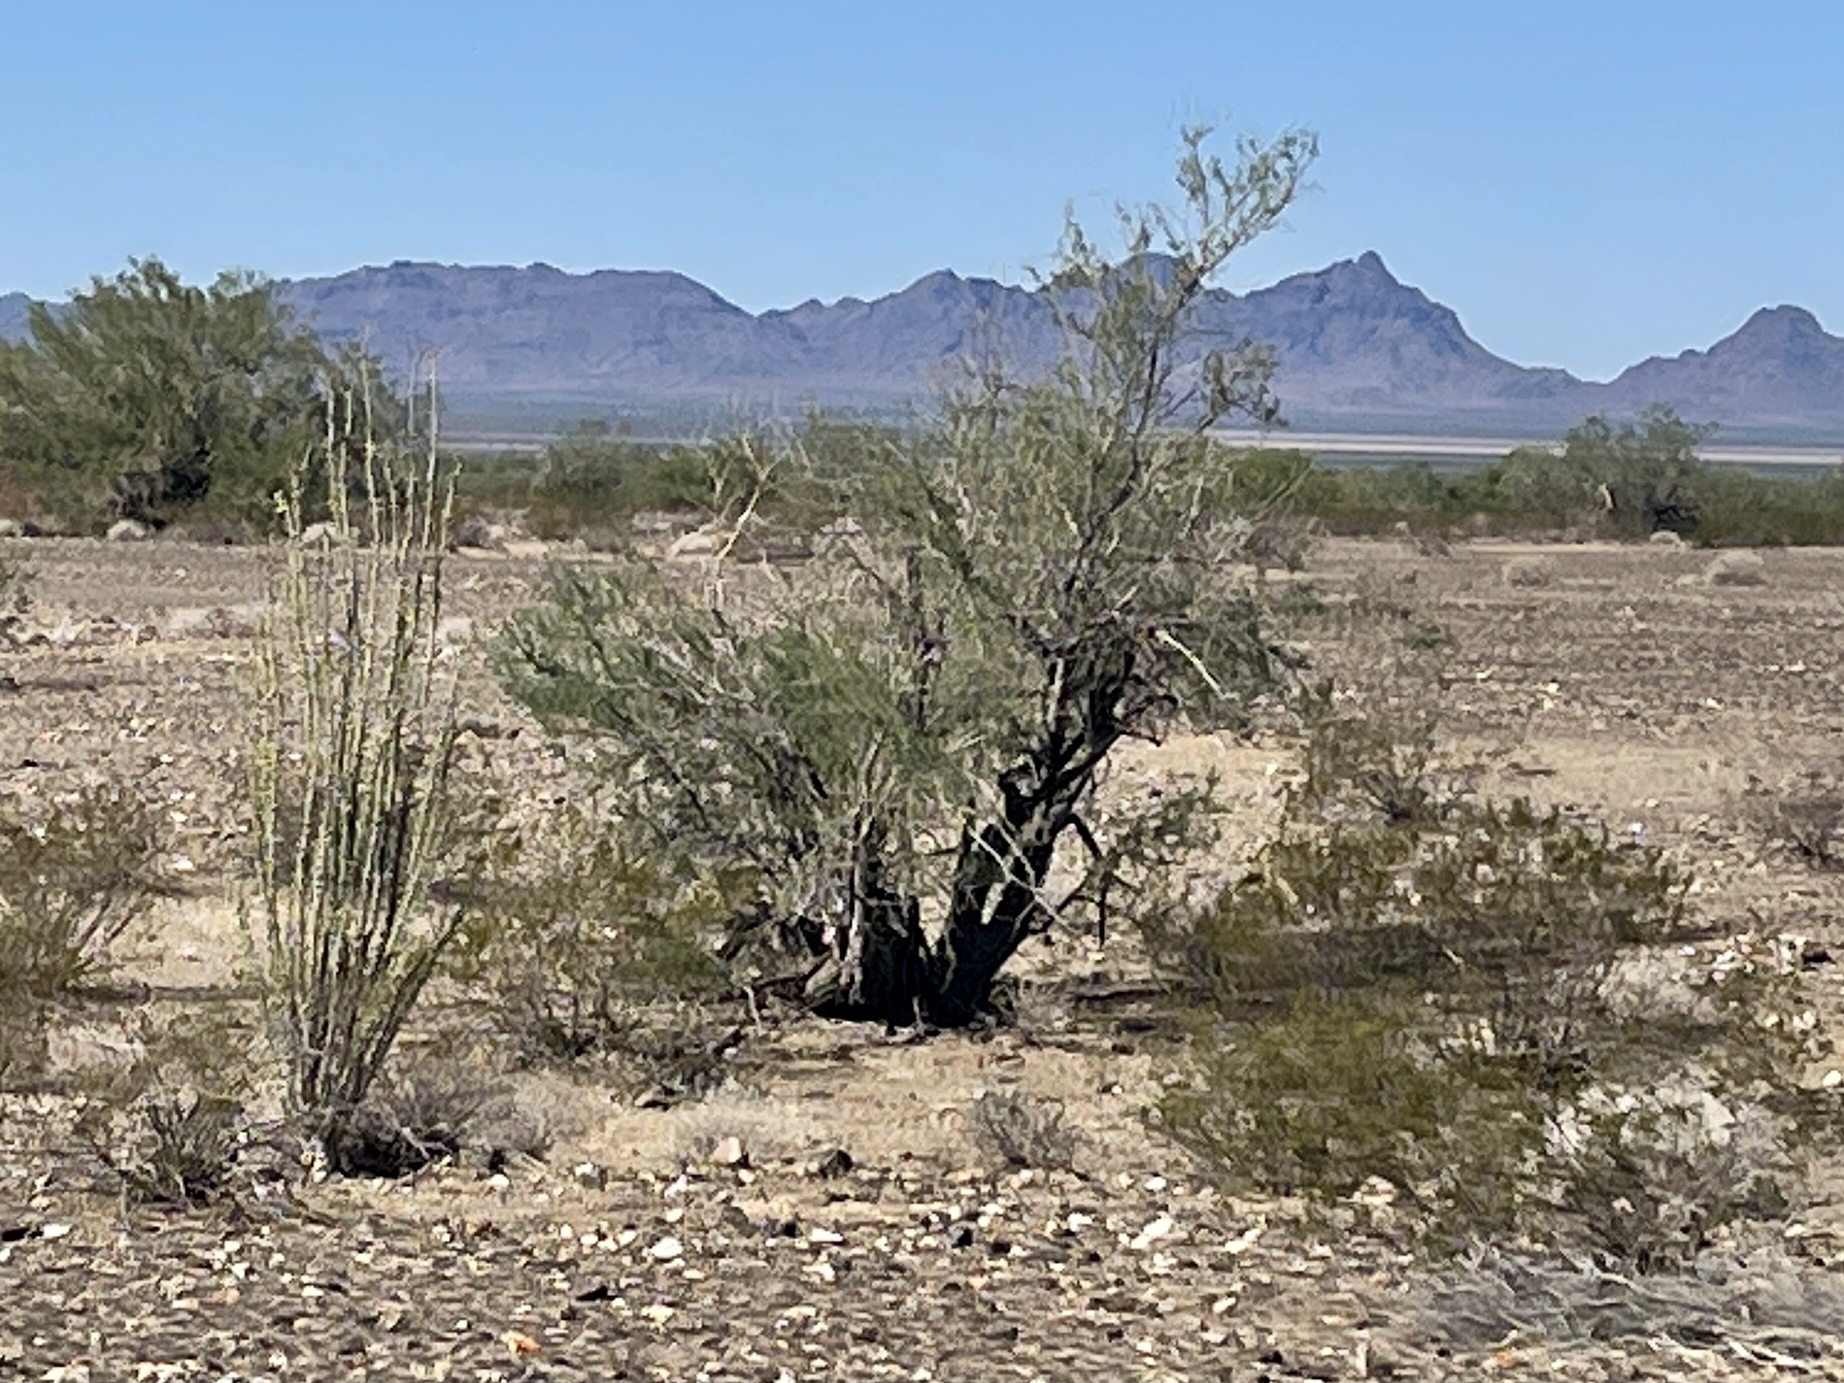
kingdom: Plantae
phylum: Tracheophyta
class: Magnoliopsida
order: Fabales
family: Fabaceae
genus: Olneya
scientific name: Olneya tesota
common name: Desert ironwood
